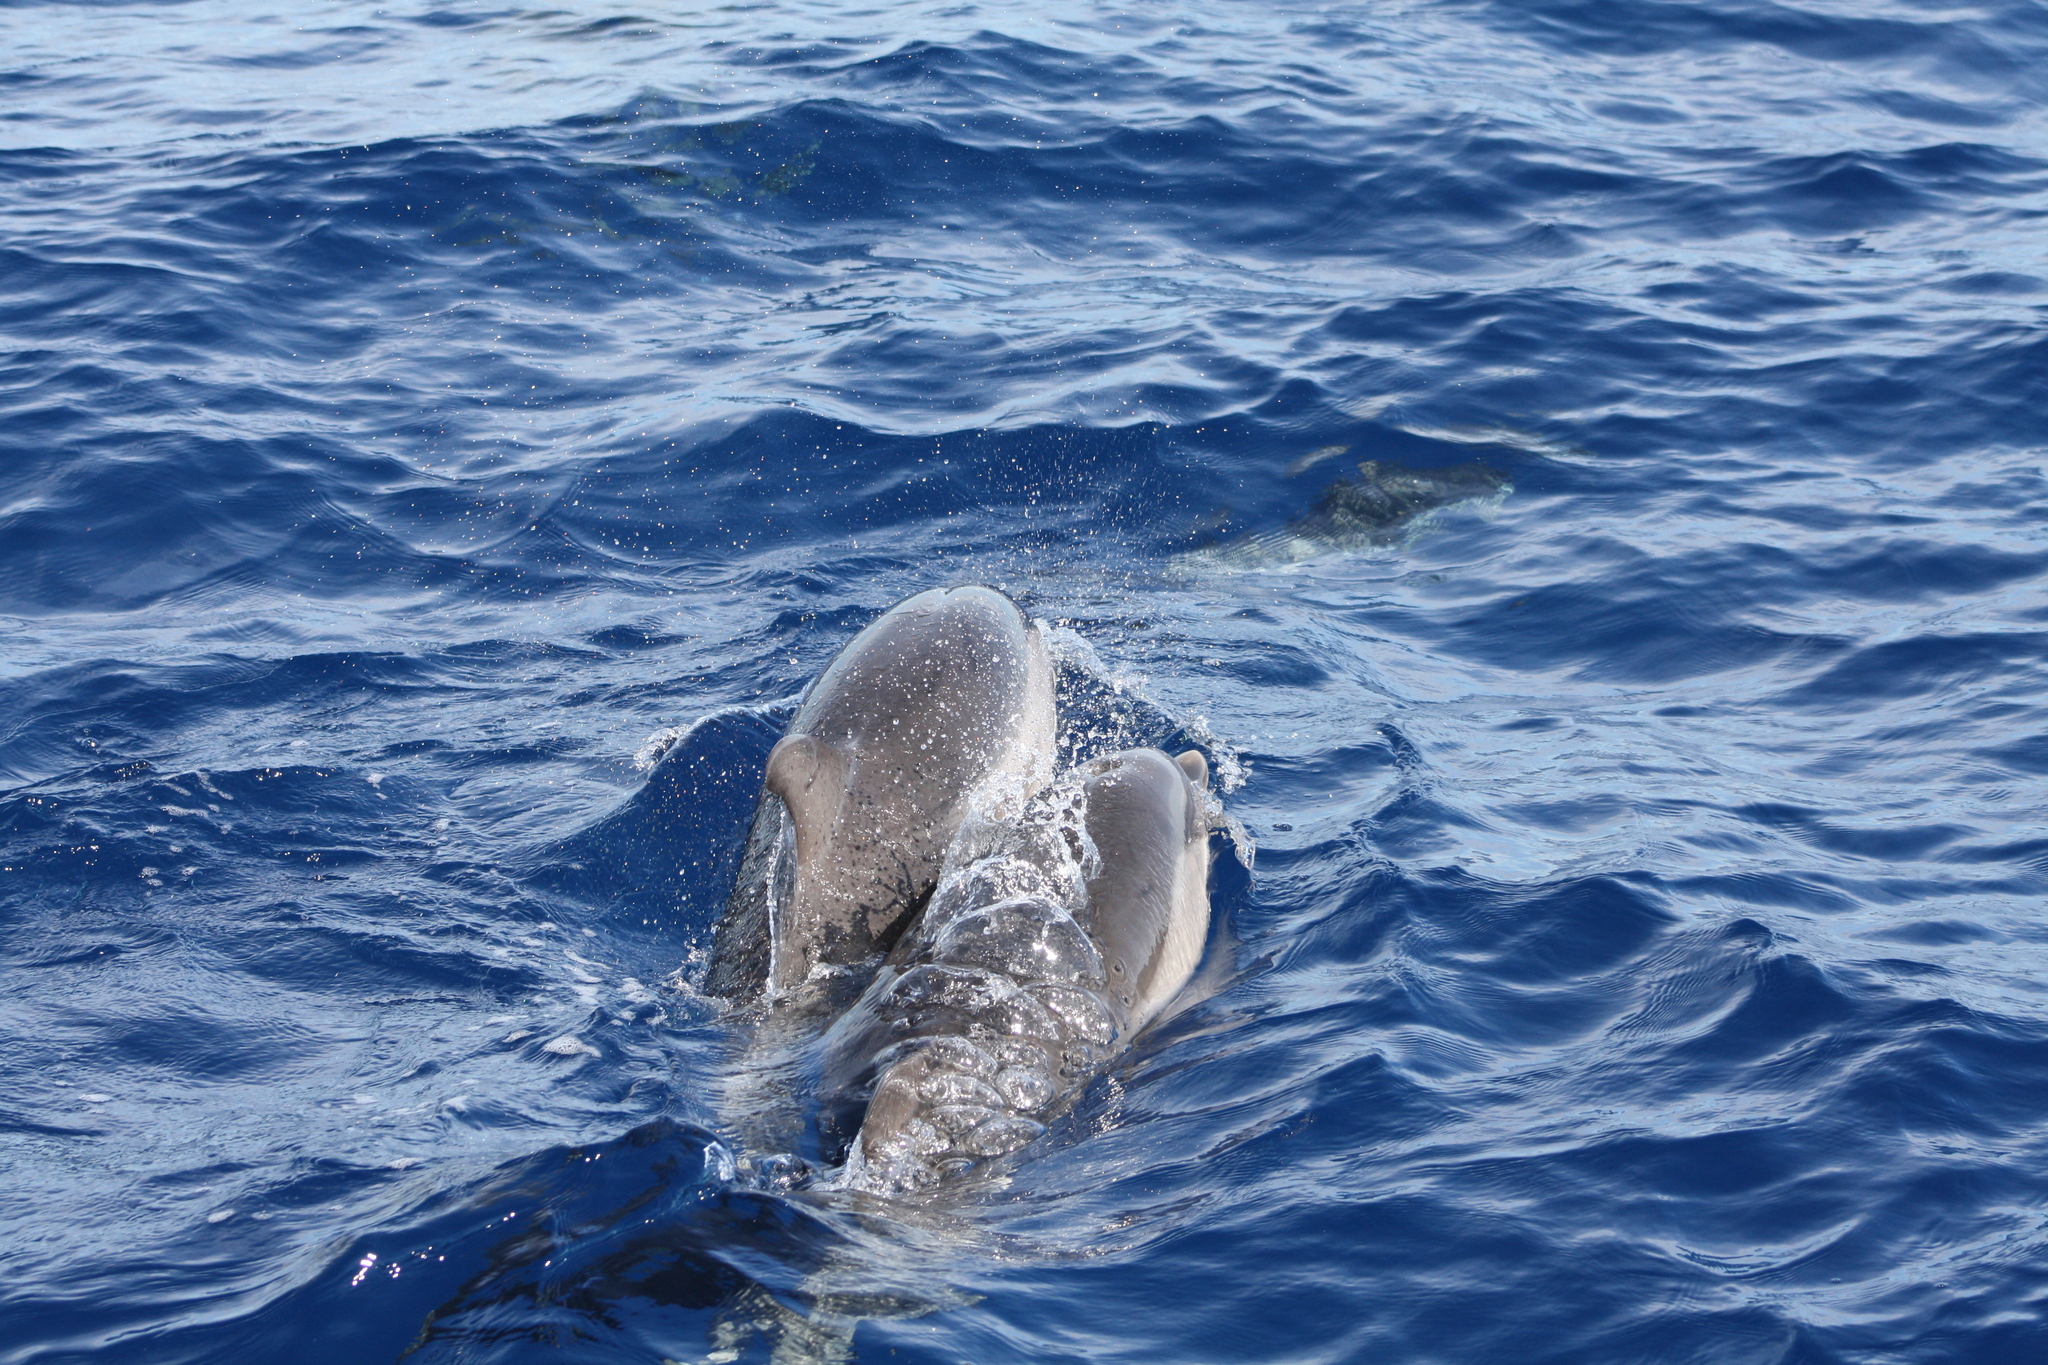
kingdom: Animalia
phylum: Chordata
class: Mammalia
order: Cetacea
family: Delphinidae
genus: Stenella
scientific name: Stenella coeruleoalba
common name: Striped dolphin
